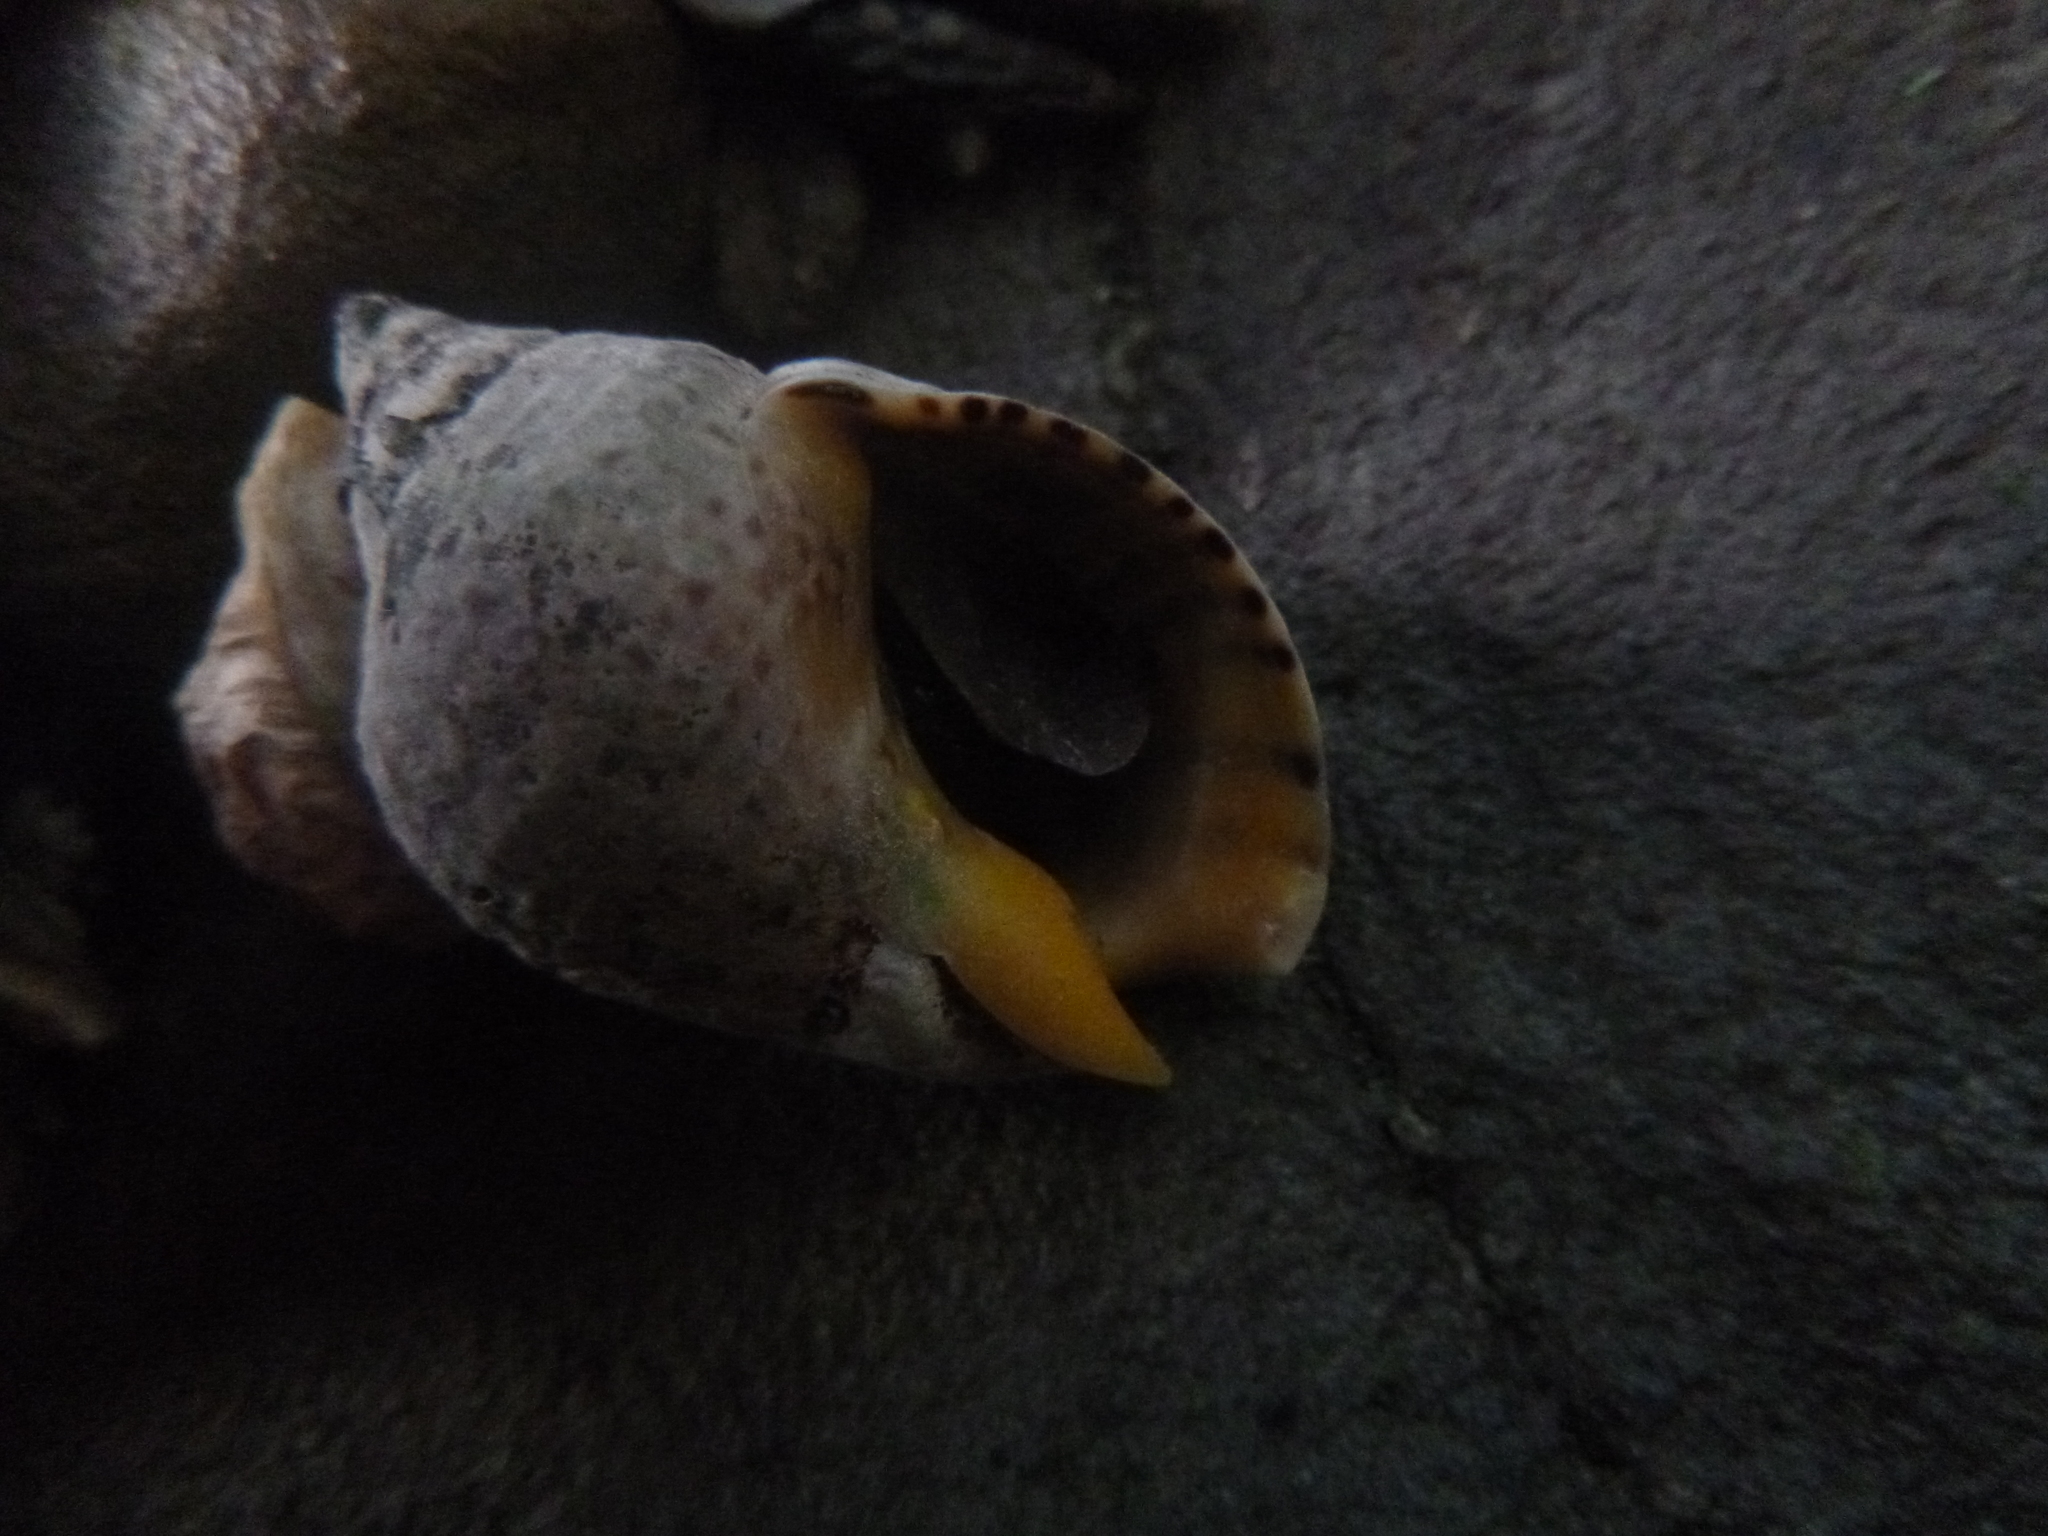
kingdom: Animalia
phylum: Mollusca
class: Gastropoda
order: Neogastropoda
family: Cominellidae
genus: Cominella
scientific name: Cominella adspersa
